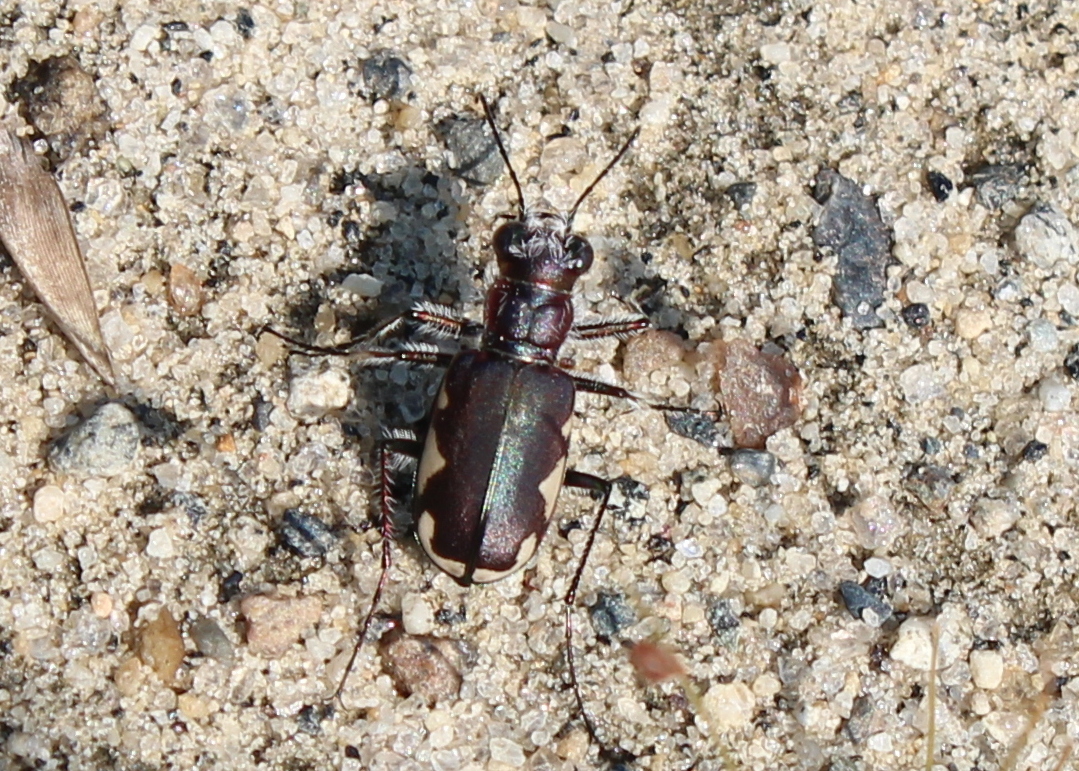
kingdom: Animalia
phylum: Arthropoda
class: Insecta
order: Coleoptera
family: Carabidae
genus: Cicindela
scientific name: Cicindela scutellaris
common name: Festive tiger beetle
